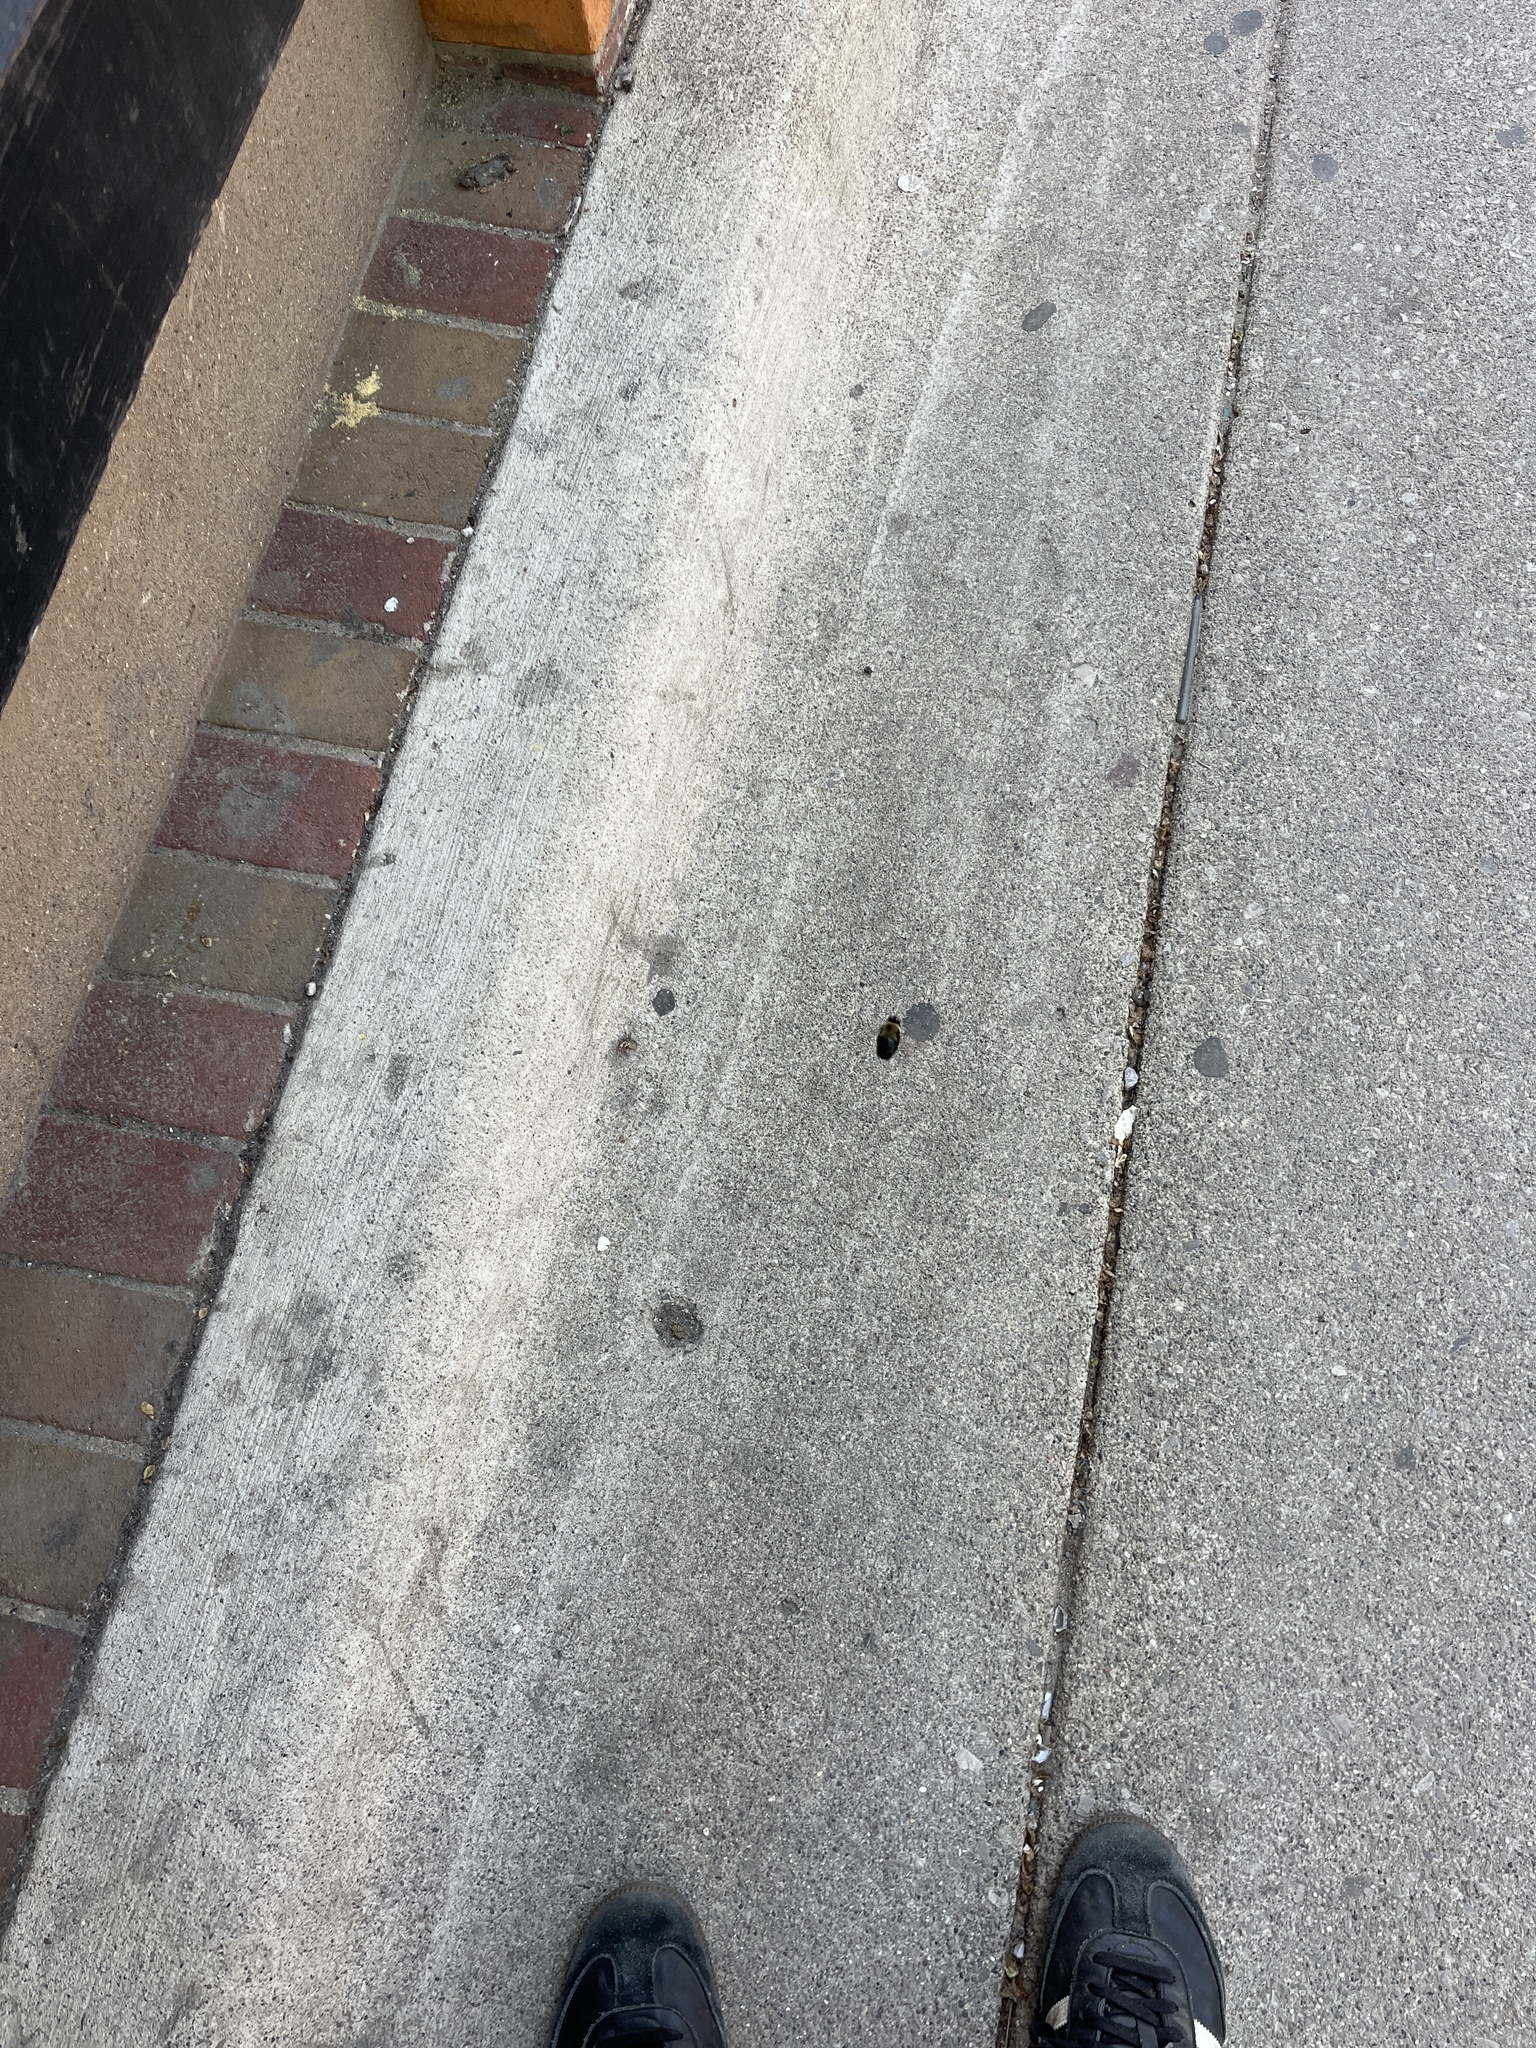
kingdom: Animalia
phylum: Arthropoda
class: Insecta
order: Hymenoptera
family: Apidae
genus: Xylocopa
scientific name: Xylocopa virginica
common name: Carpenter bee
